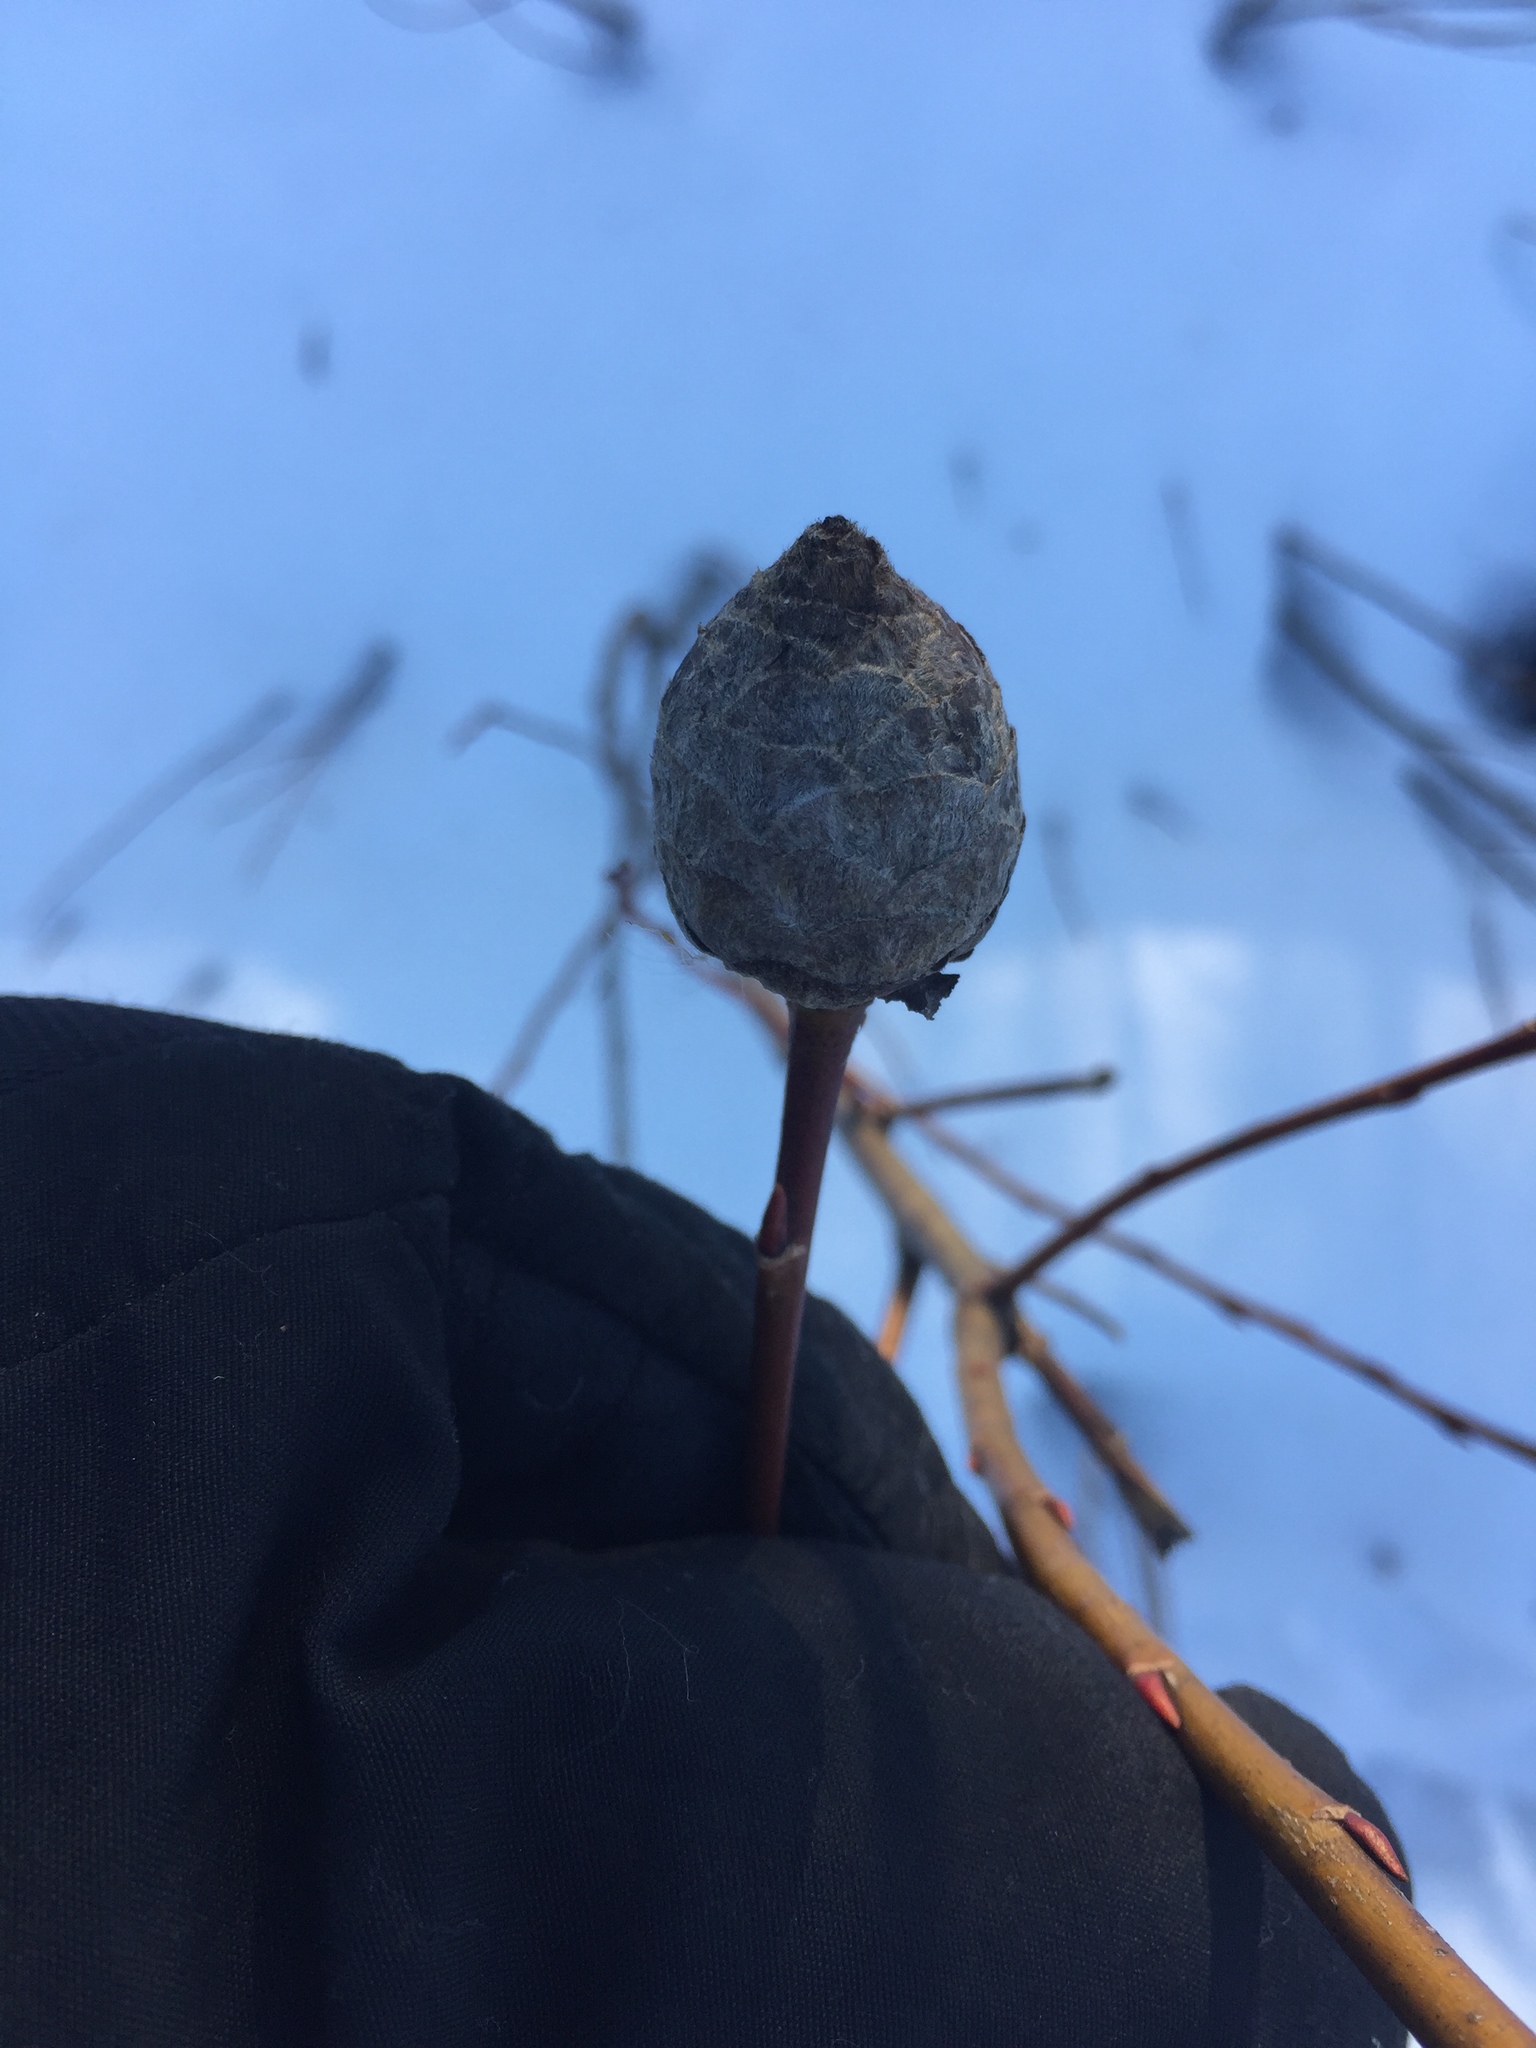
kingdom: Animalia
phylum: Arthropoda
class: Insecta
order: Diptera
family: Cecidomyiidae
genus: Rabdophaga
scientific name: Rabdophaga strobiloides
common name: Willow pinecone gall midge
